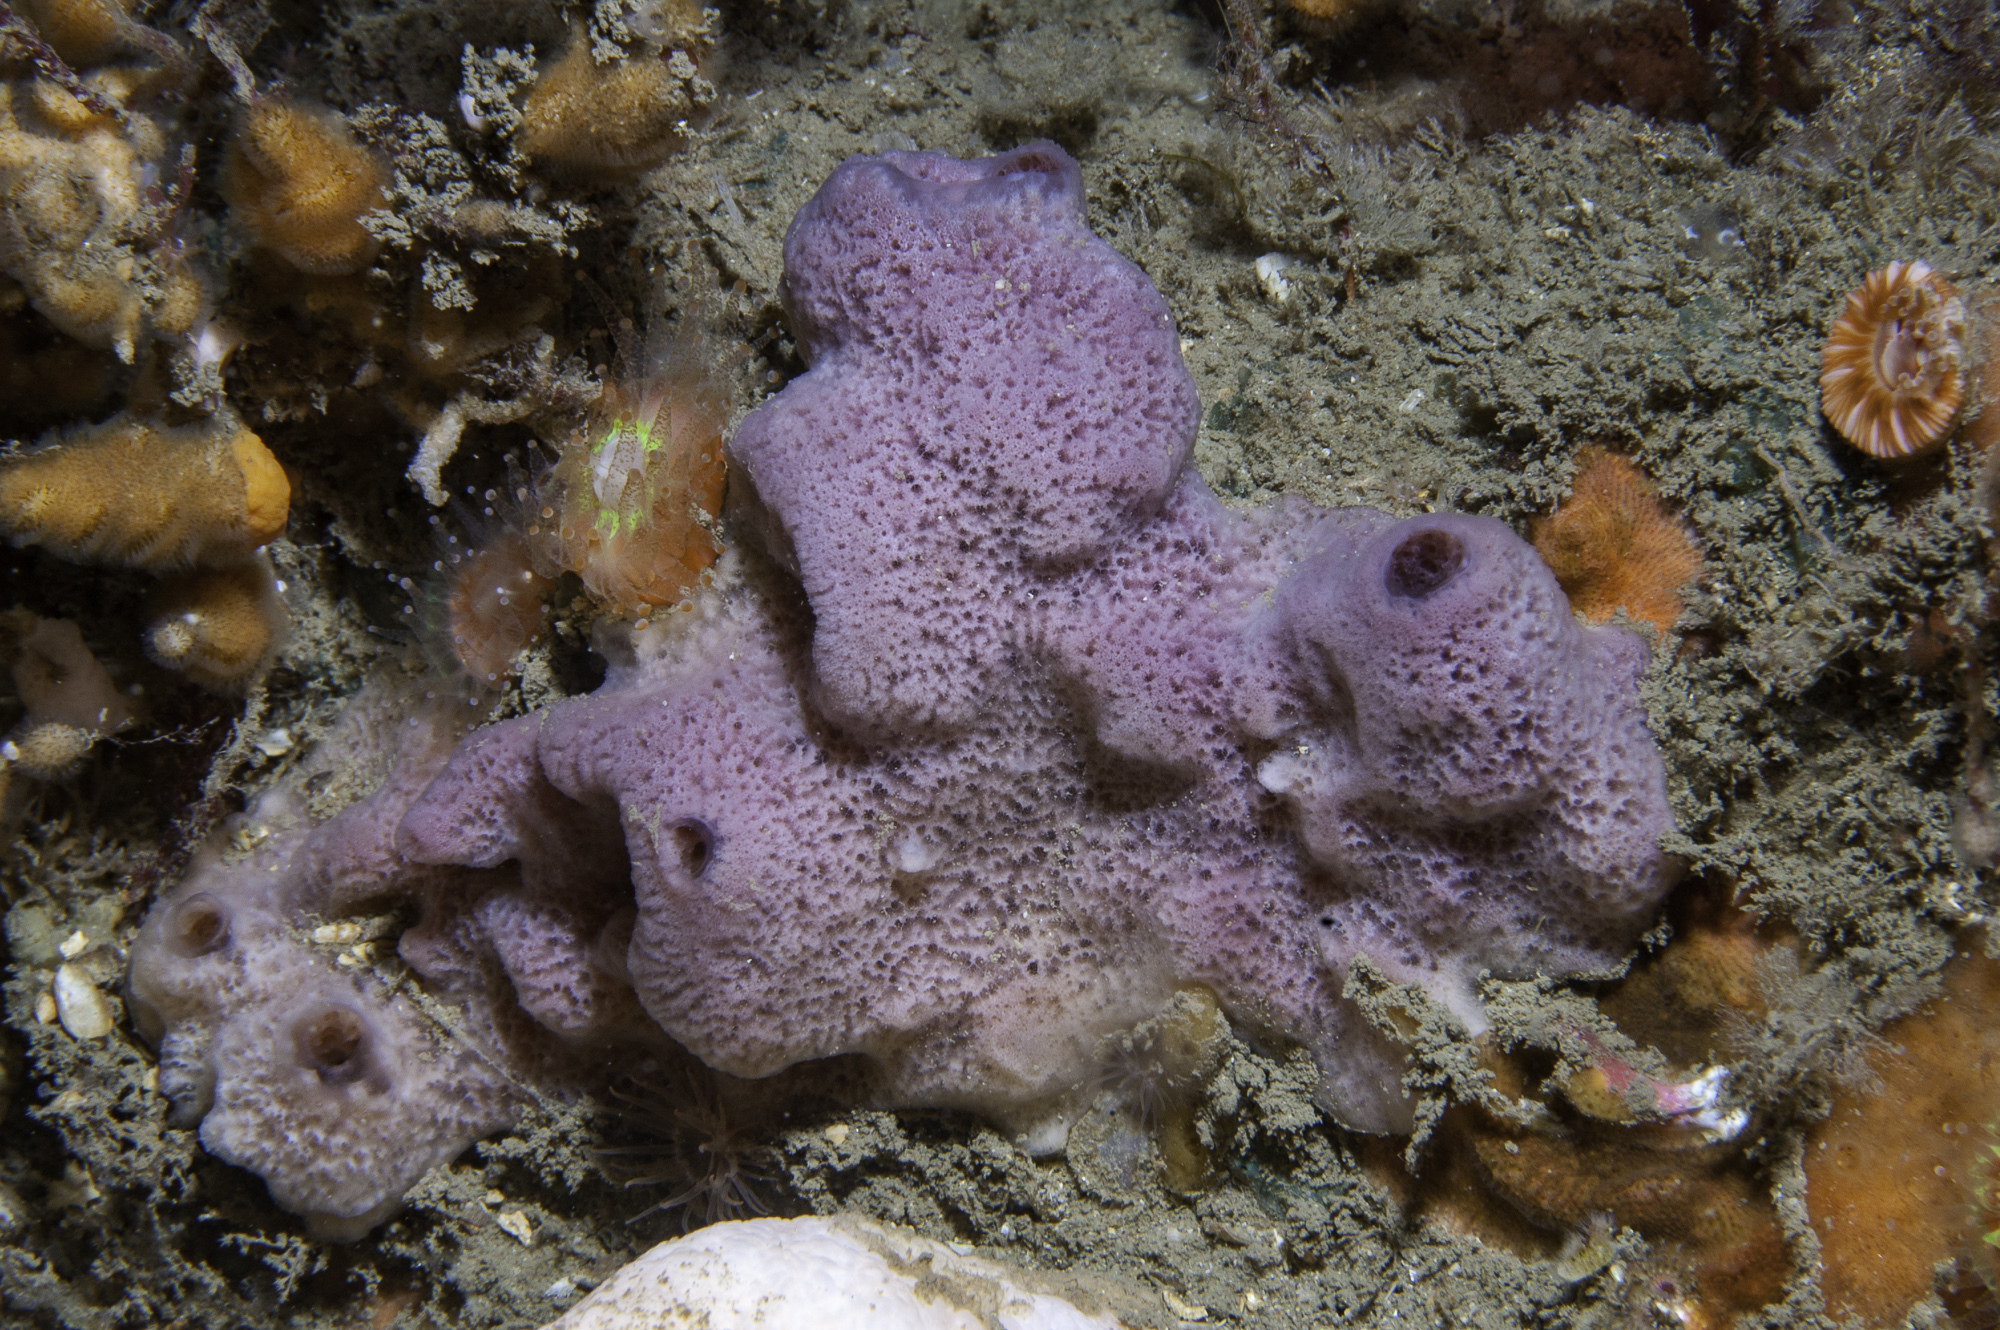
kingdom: Animalia
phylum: Porifera
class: Demospongiae
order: Haplosclerida
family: Chalinidae
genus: Haliclona
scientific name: Haliclona viscosa
